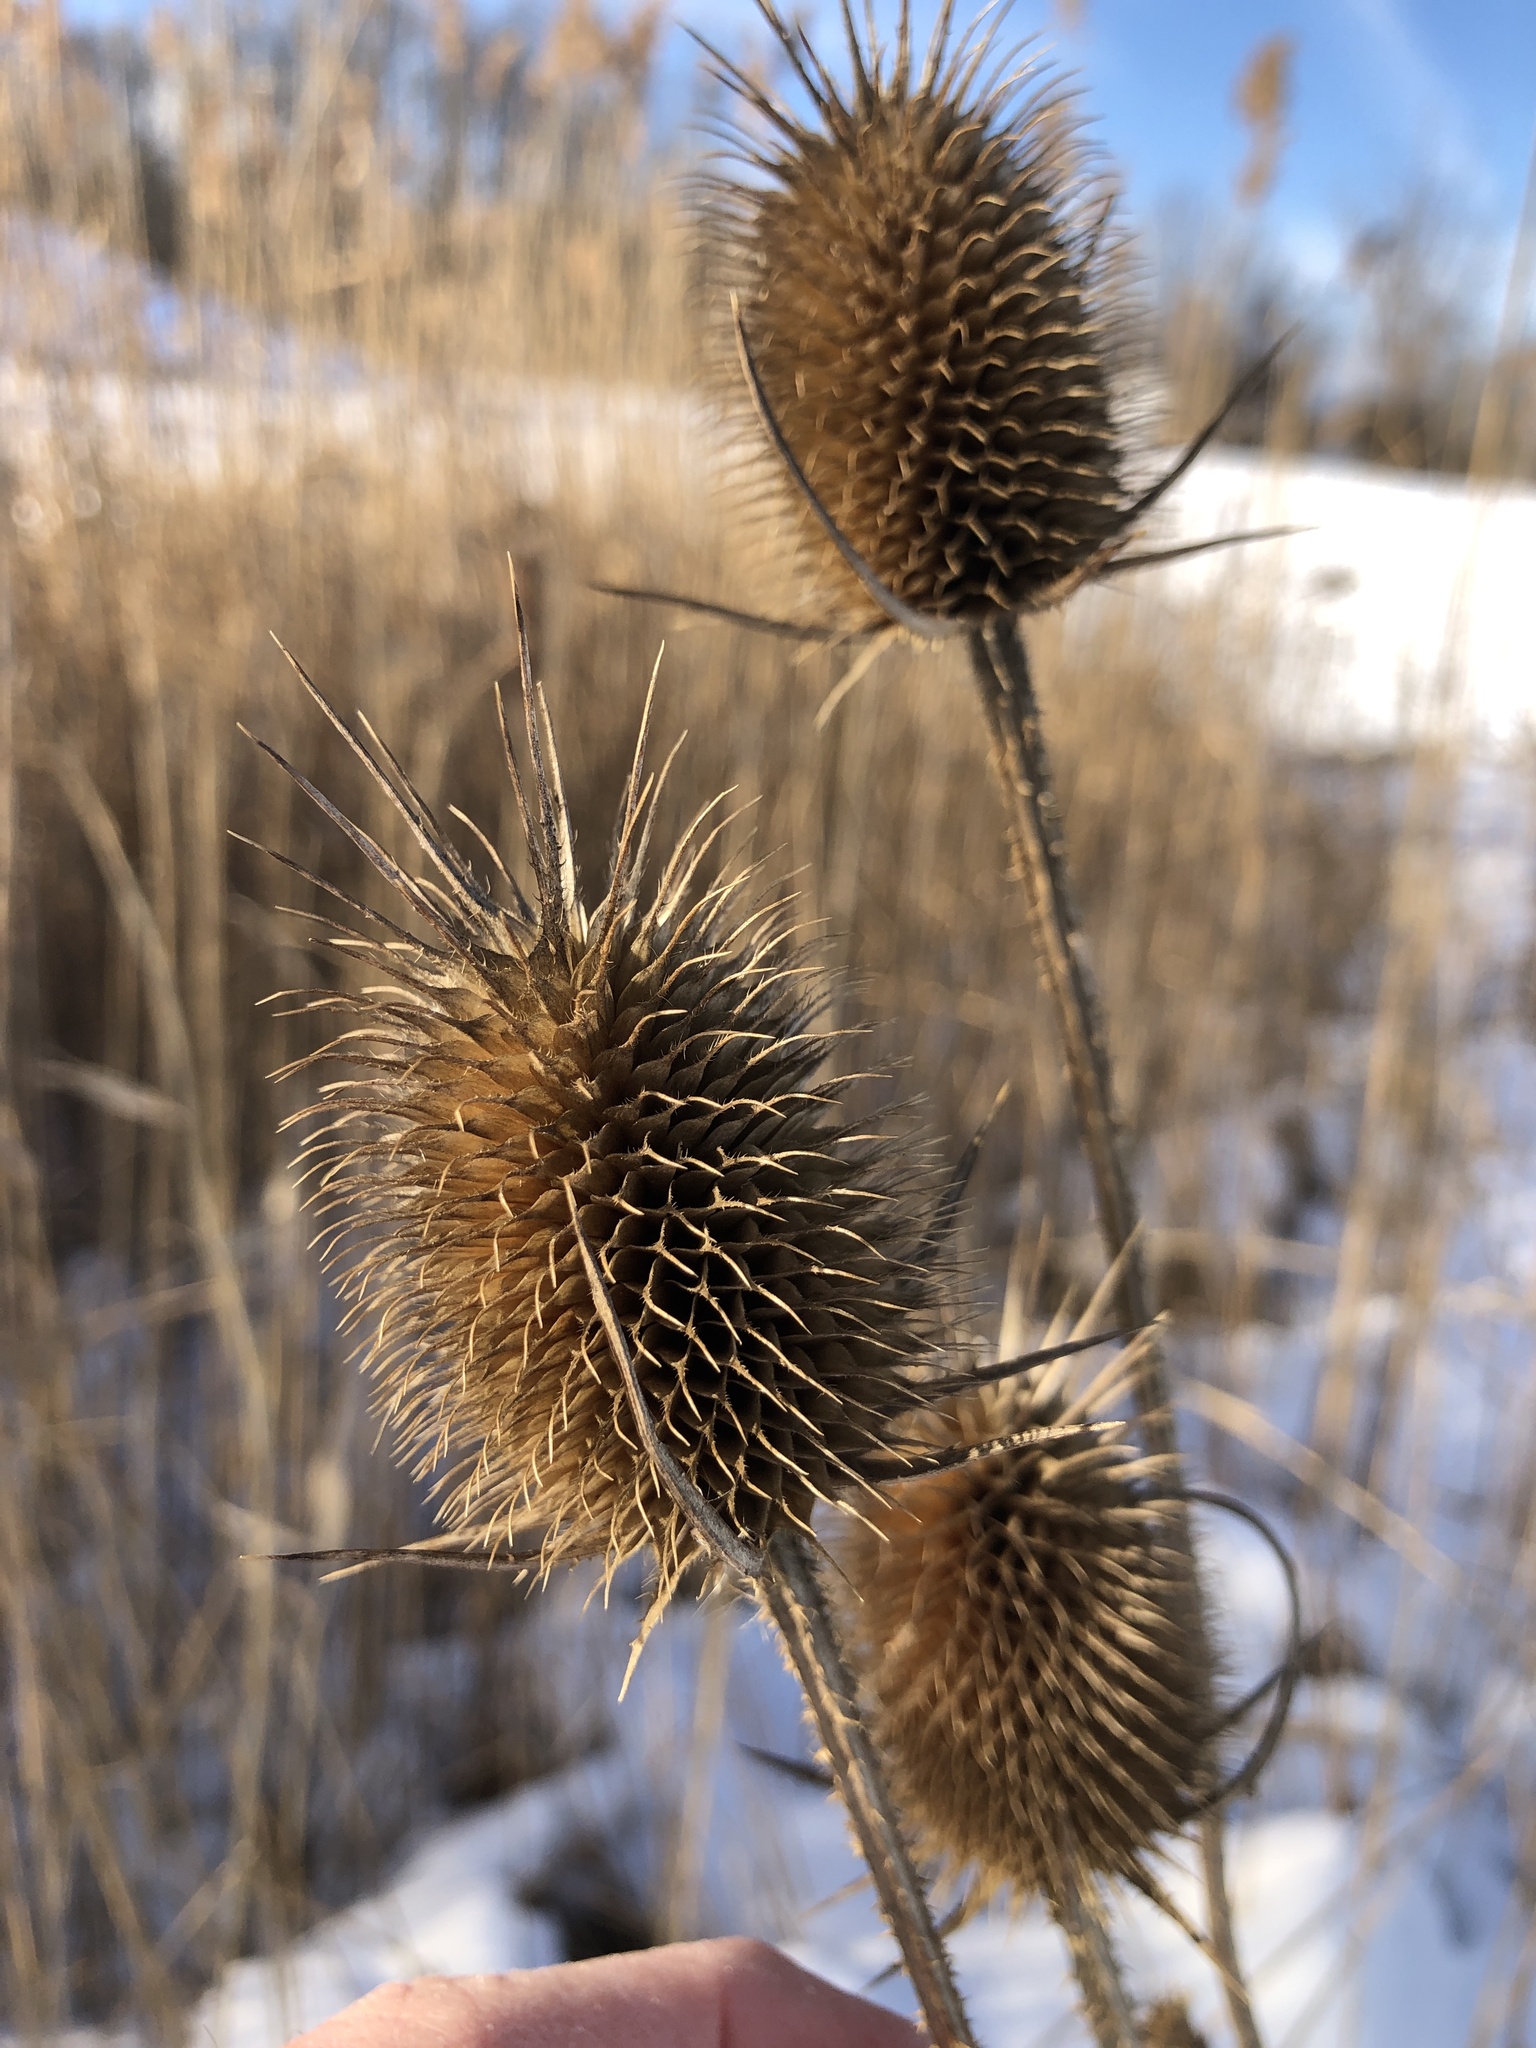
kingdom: Plantae
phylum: Tracheophyta
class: Magnoliopsida
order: Dipsacales
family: Caprifoliaceae
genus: Dipsacus
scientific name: Dipsacus laciniatus
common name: Cut-leaved teasel
